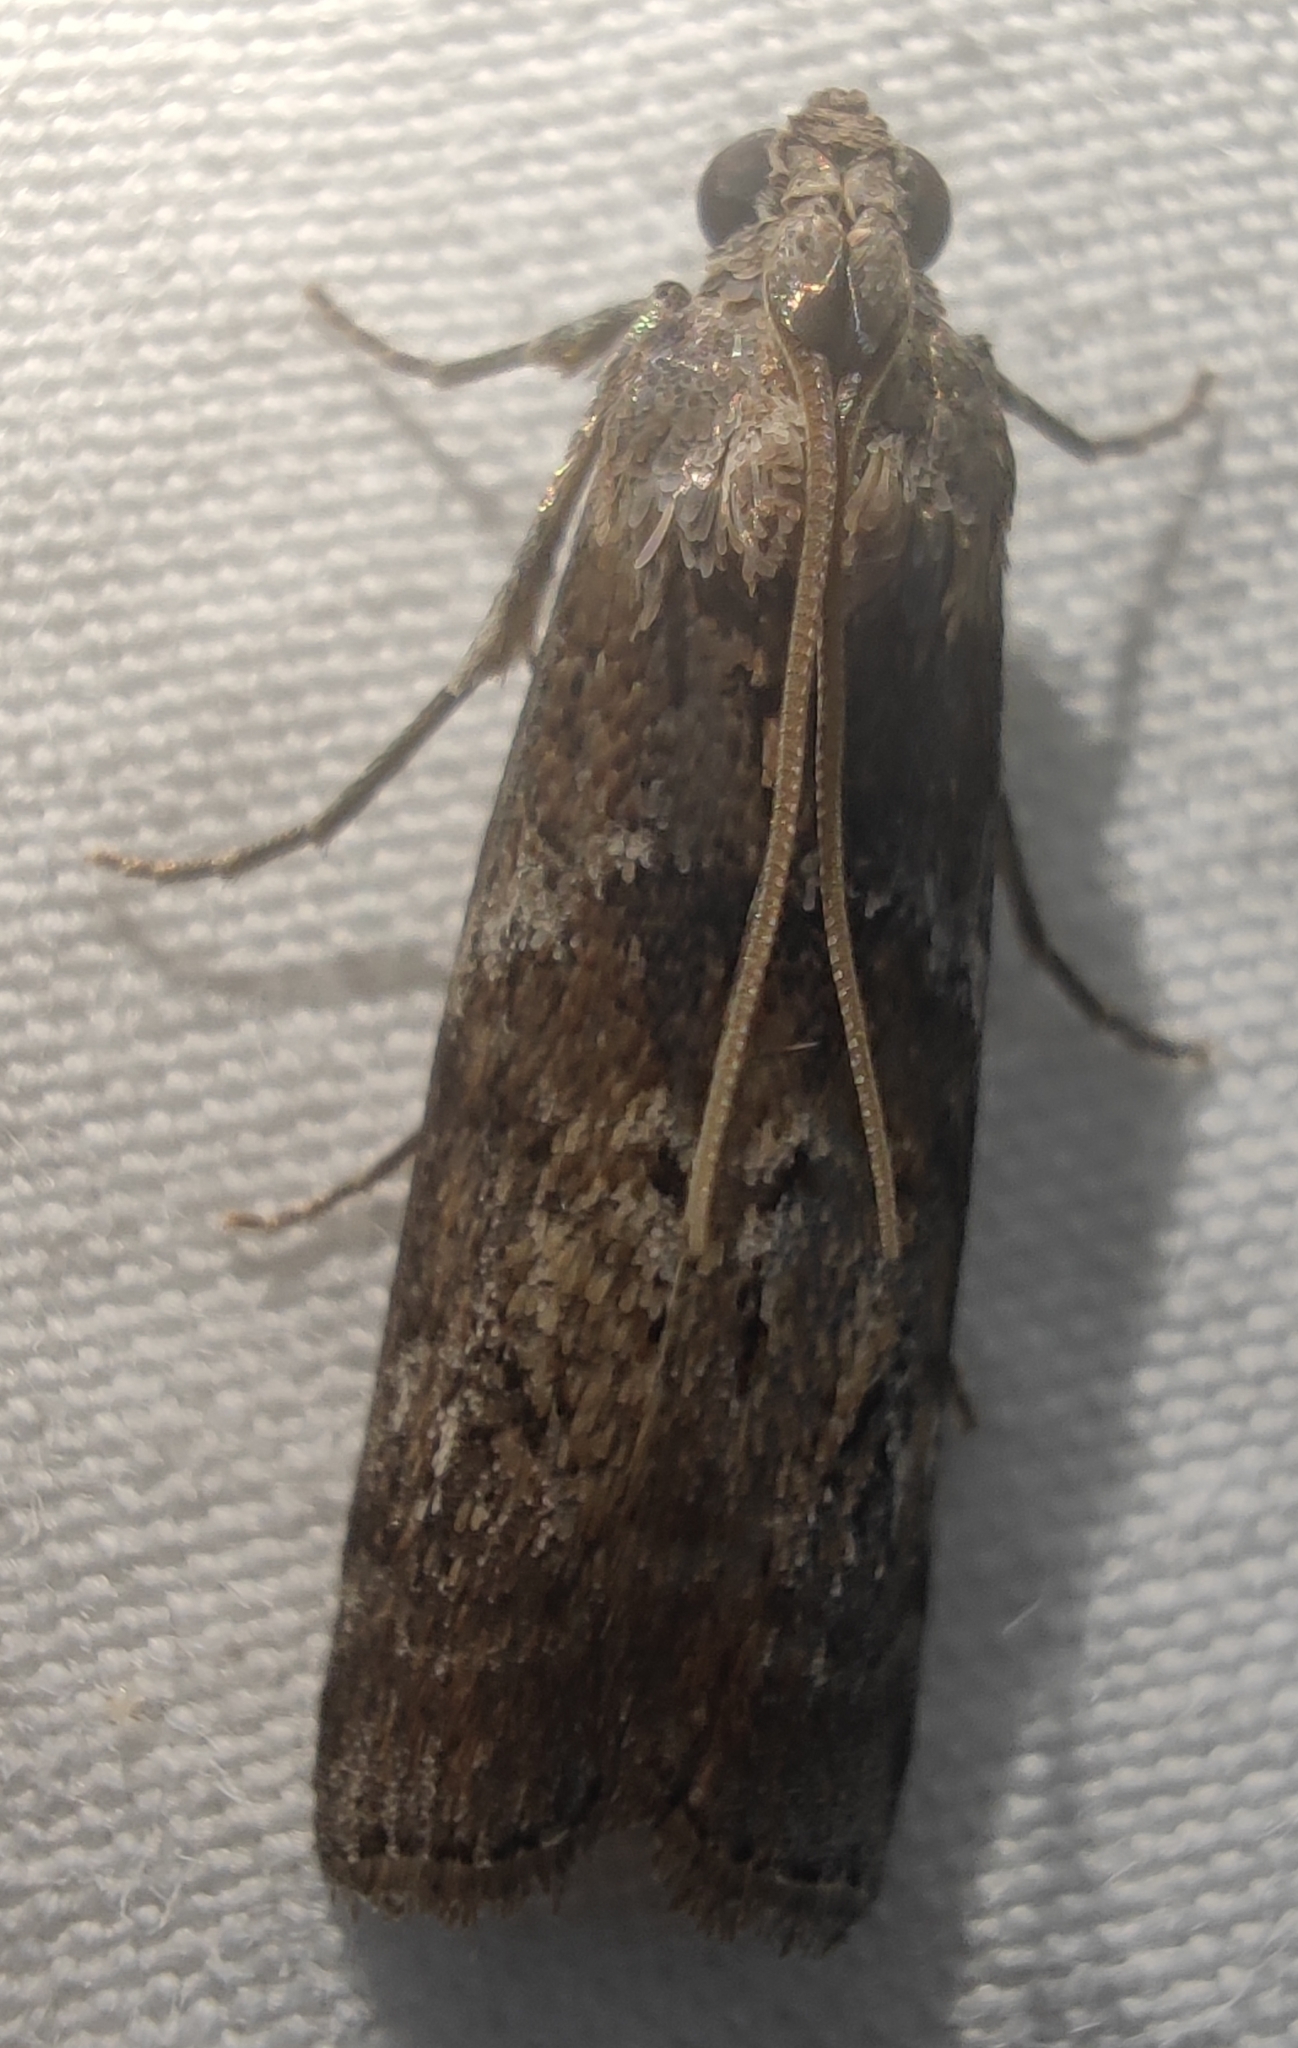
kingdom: Animalia
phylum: Arthropoda
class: Insecta
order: Lepidoptera
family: Pyralidae
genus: Phycita
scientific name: Phycita roborella
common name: Dotted oak knot-horn
